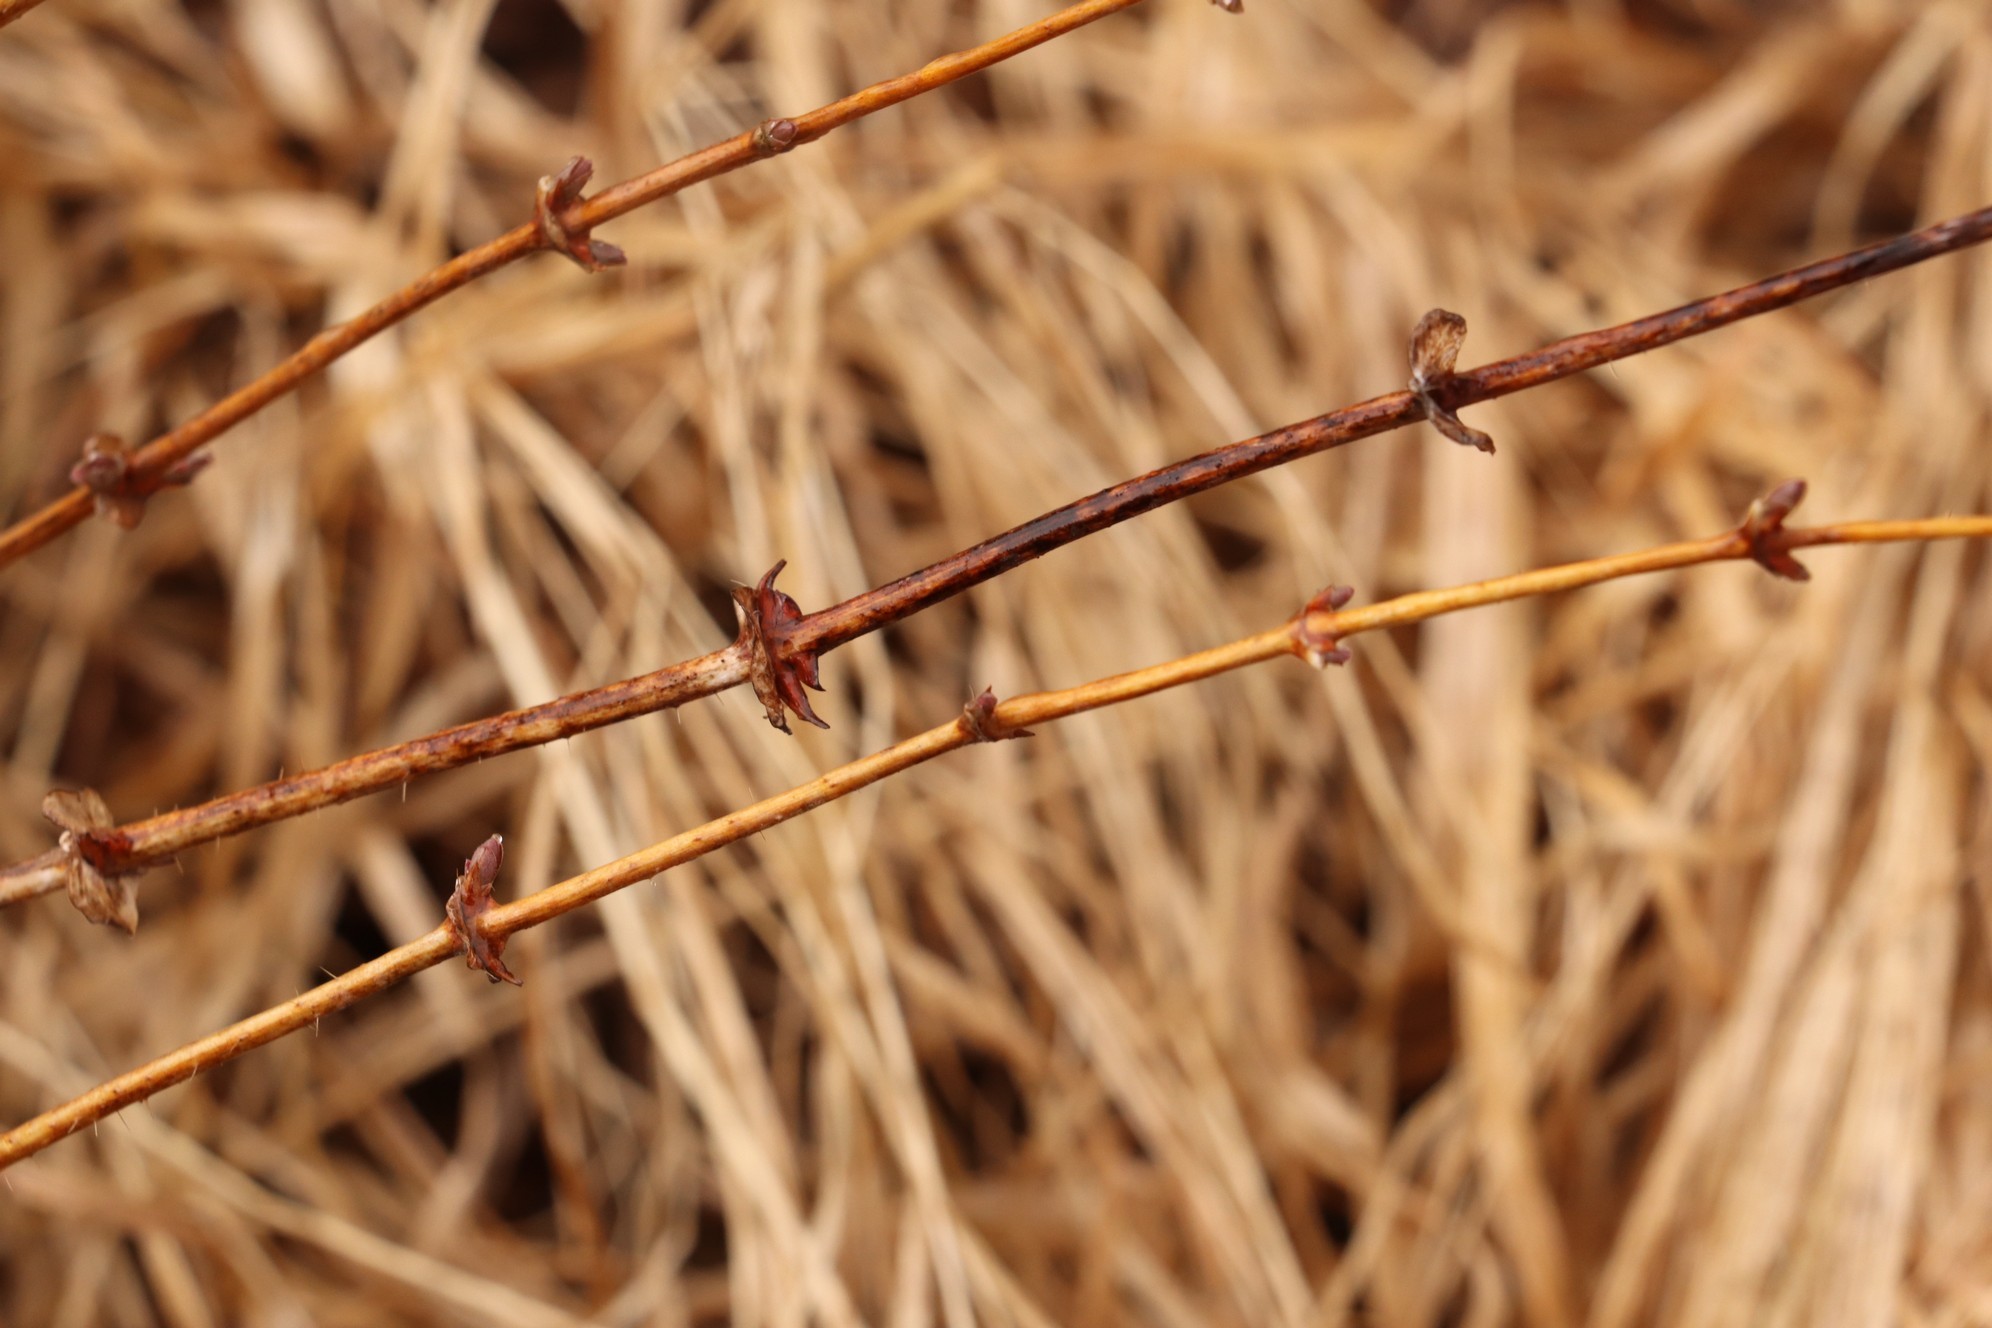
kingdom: Plantae
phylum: Tracheophyta
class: Magnoliopsida
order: Dipsacales
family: Caprifoliaceae
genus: Lonicera
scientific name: Lonicera caerulea
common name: Blue honeysuckle
